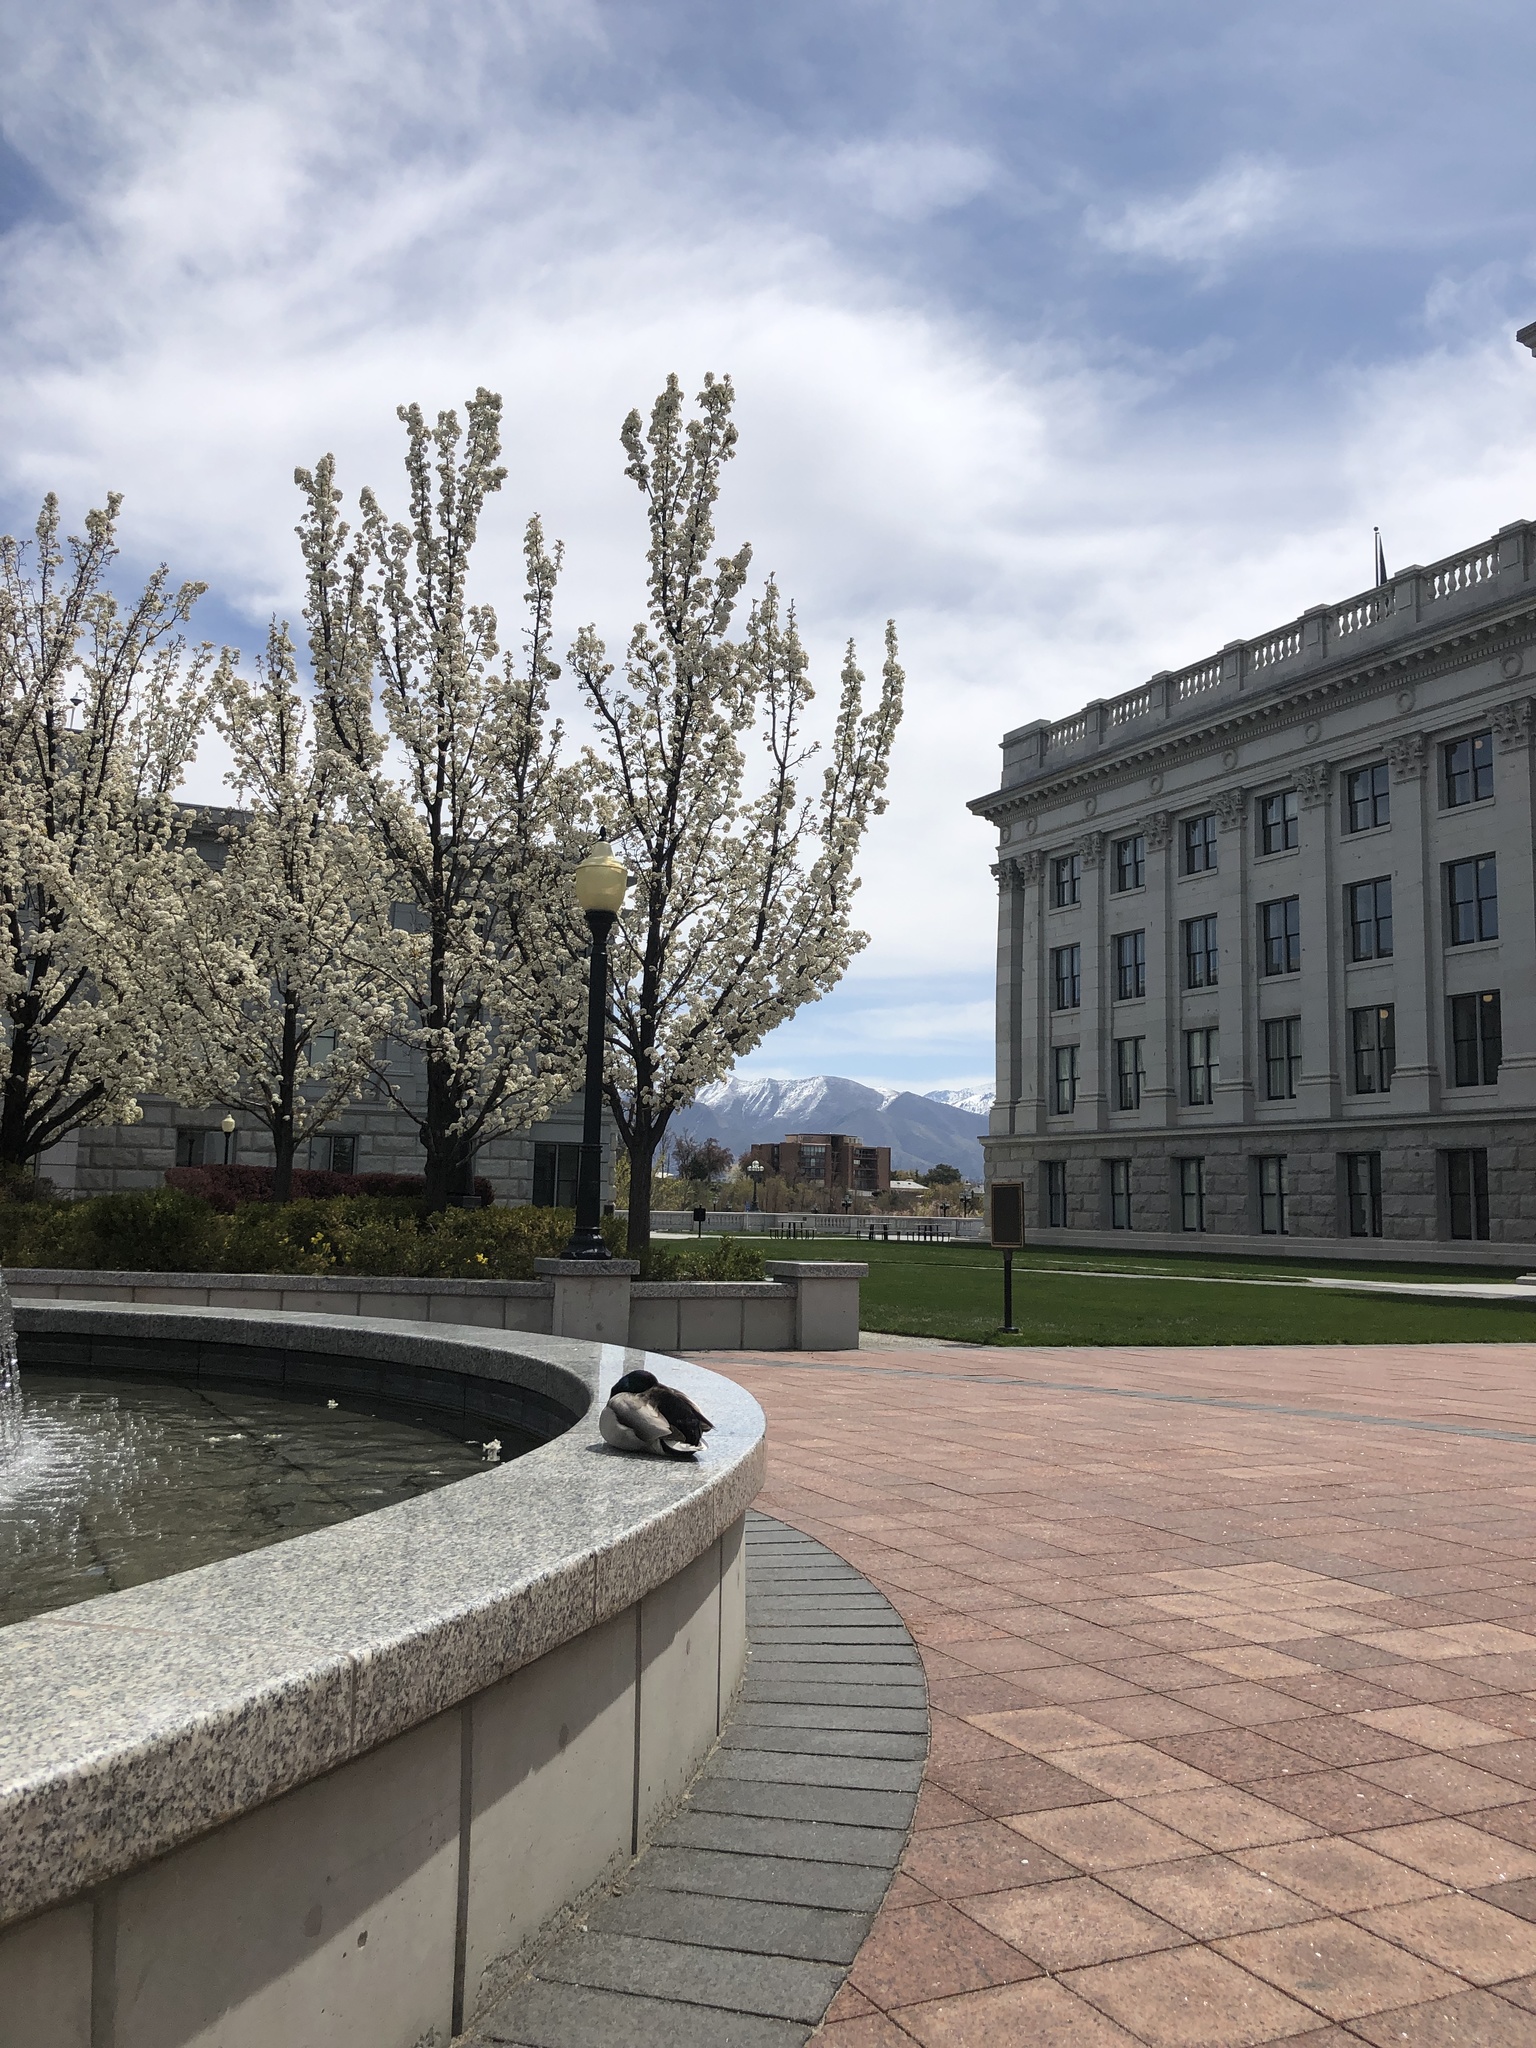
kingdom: Animalia
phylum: Chordata
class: Aves
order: Anseriformes
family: Anatidae
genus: Anas
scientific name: Anas platyrhynchos
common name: Mallard
